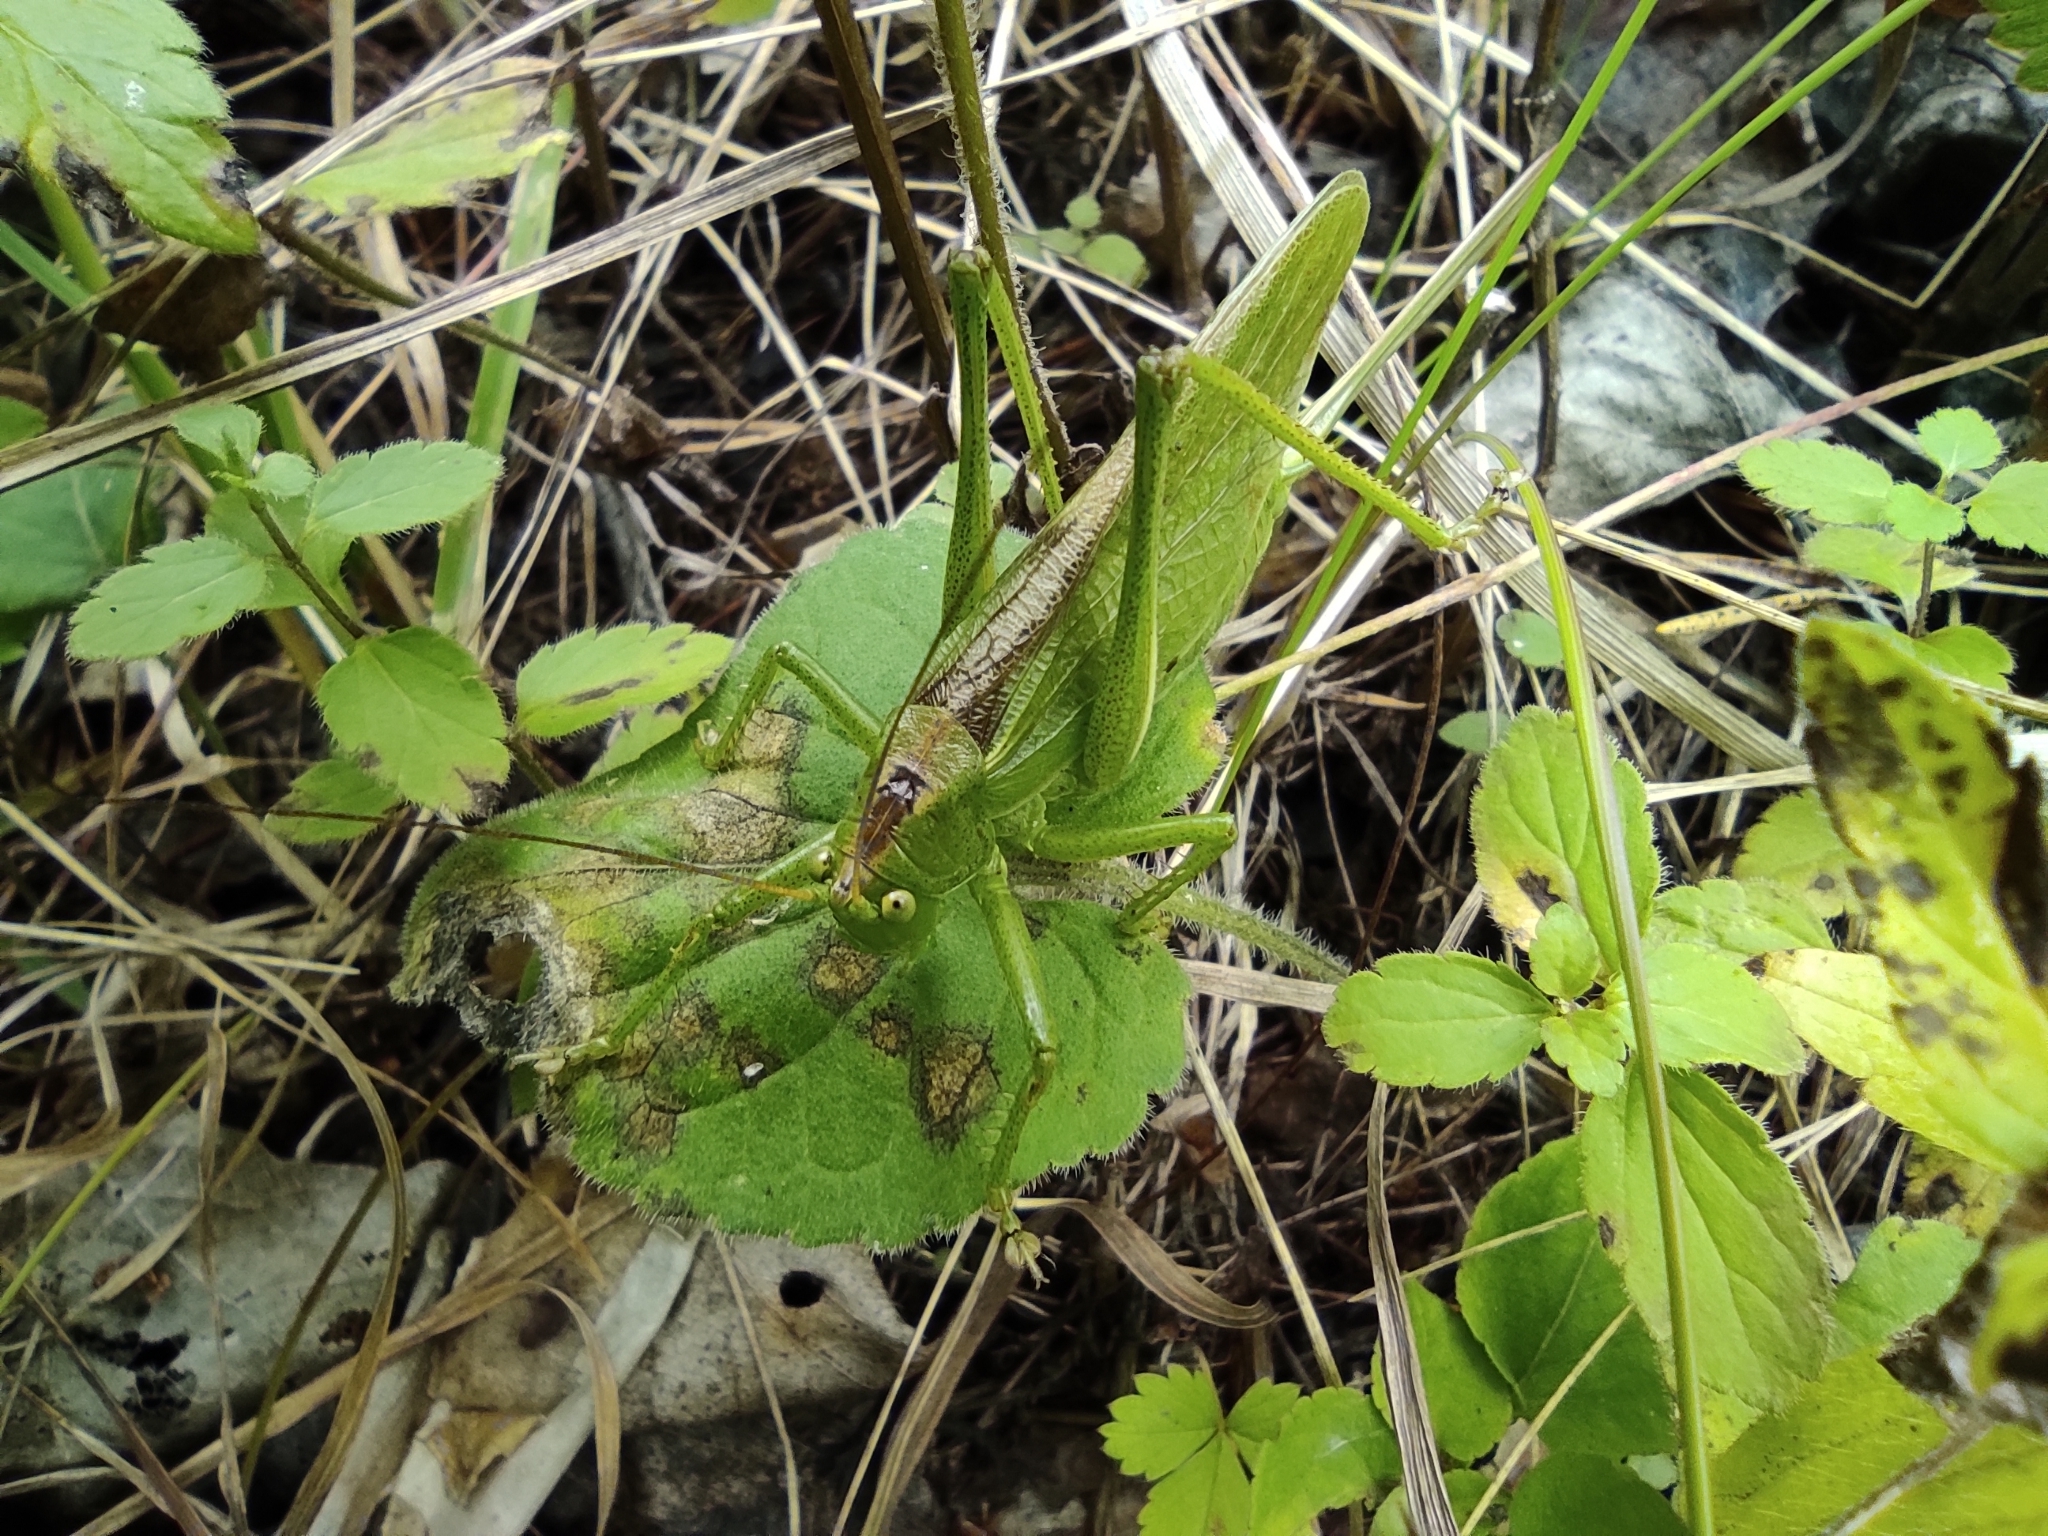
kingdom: Animalia
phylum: Arthropoda
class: Insecta
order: Orthoptera
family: Tettigoniidae
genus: Tettigonia
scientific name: Tettigonia cantans
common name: Upland green bush-cricket
